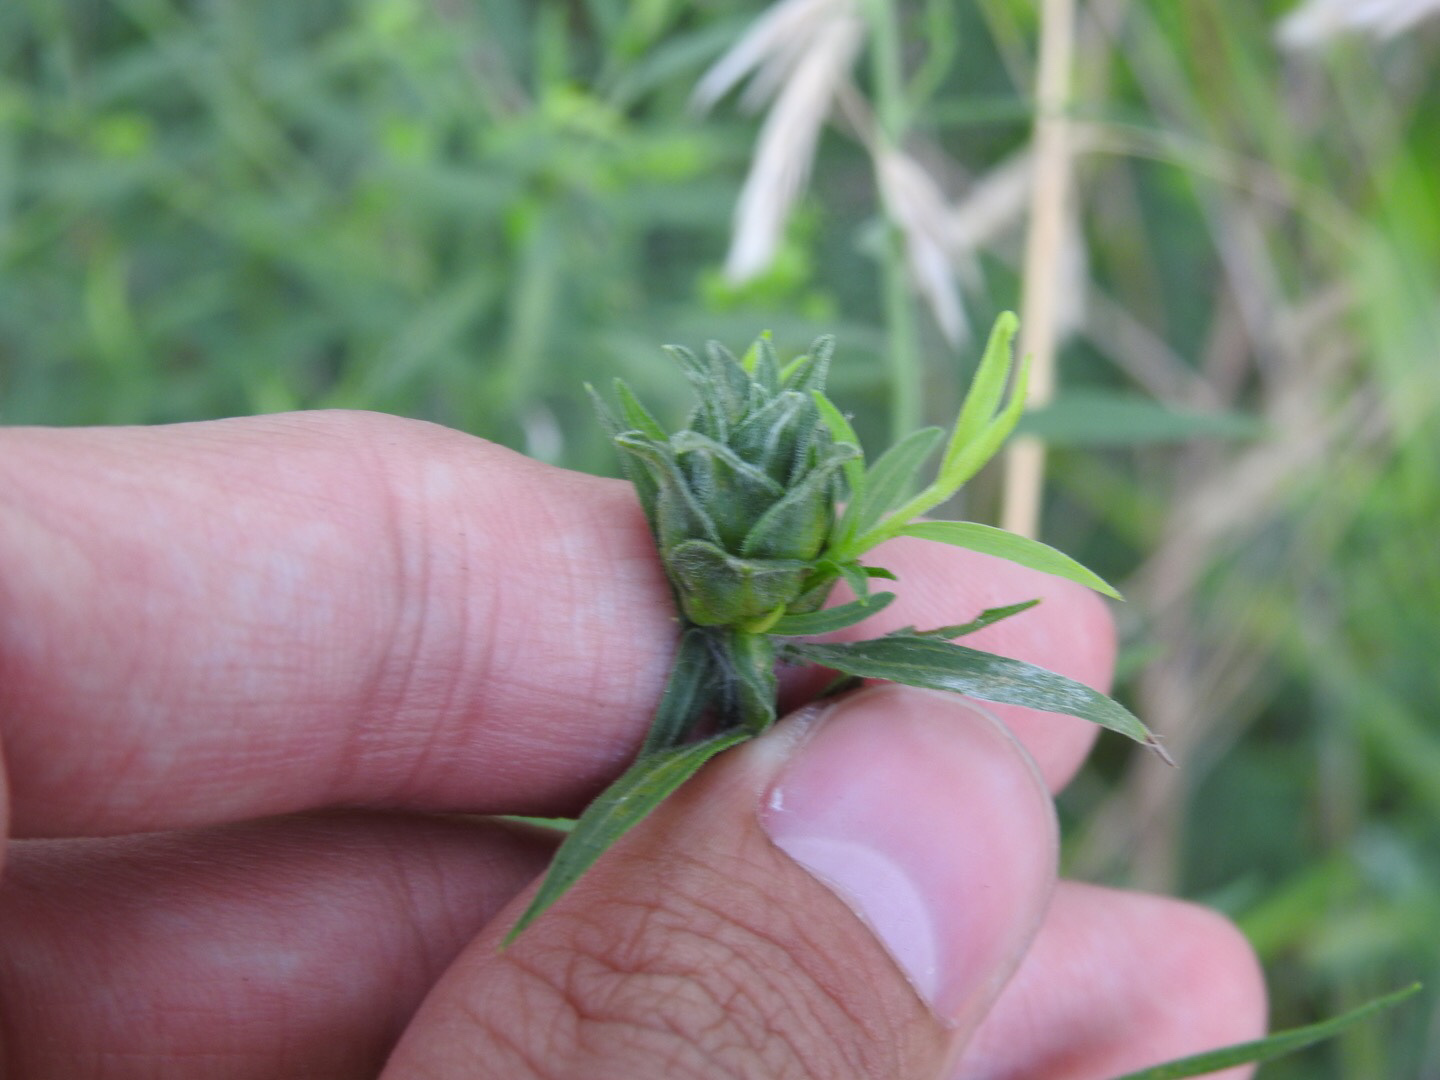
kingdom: Animalia
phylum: Arthropoda
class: Insecta
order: Diptera
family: Cecidomyiidae
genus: Asphondylia
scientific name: Asphondylia pseudorosa
